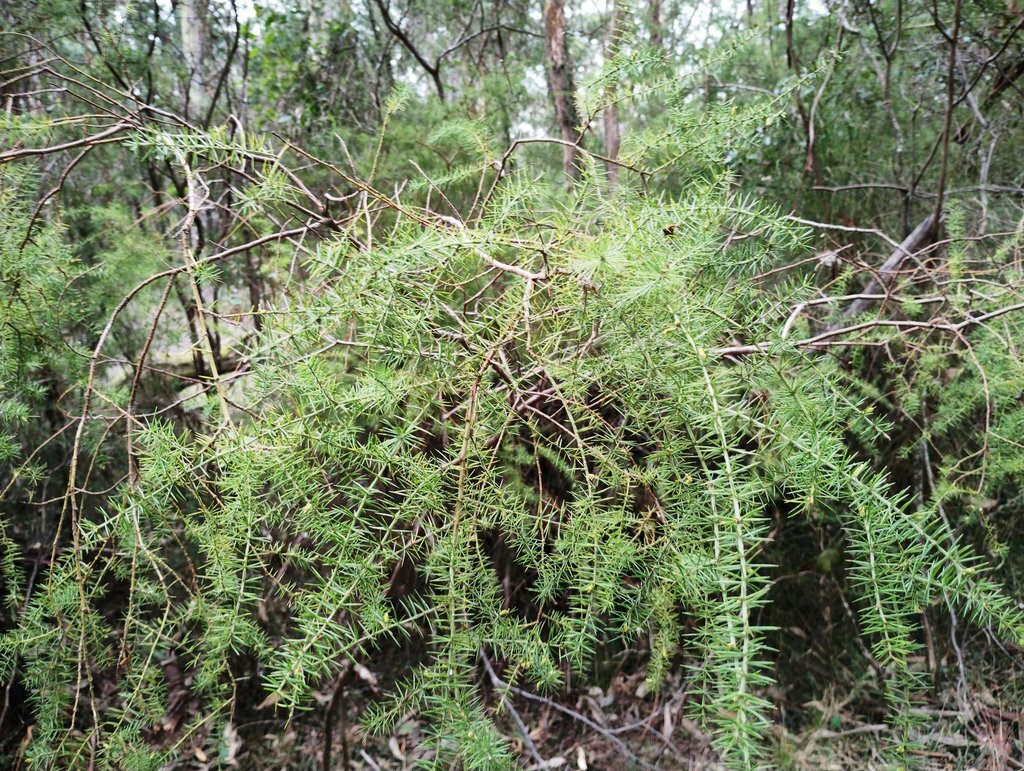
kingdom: Plantae
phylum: Tracheophyta
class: Magnoliopsida
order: Fabales
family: Fabaceae
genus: Acacia
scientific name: Acacia verticillata
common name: Prickly moses
